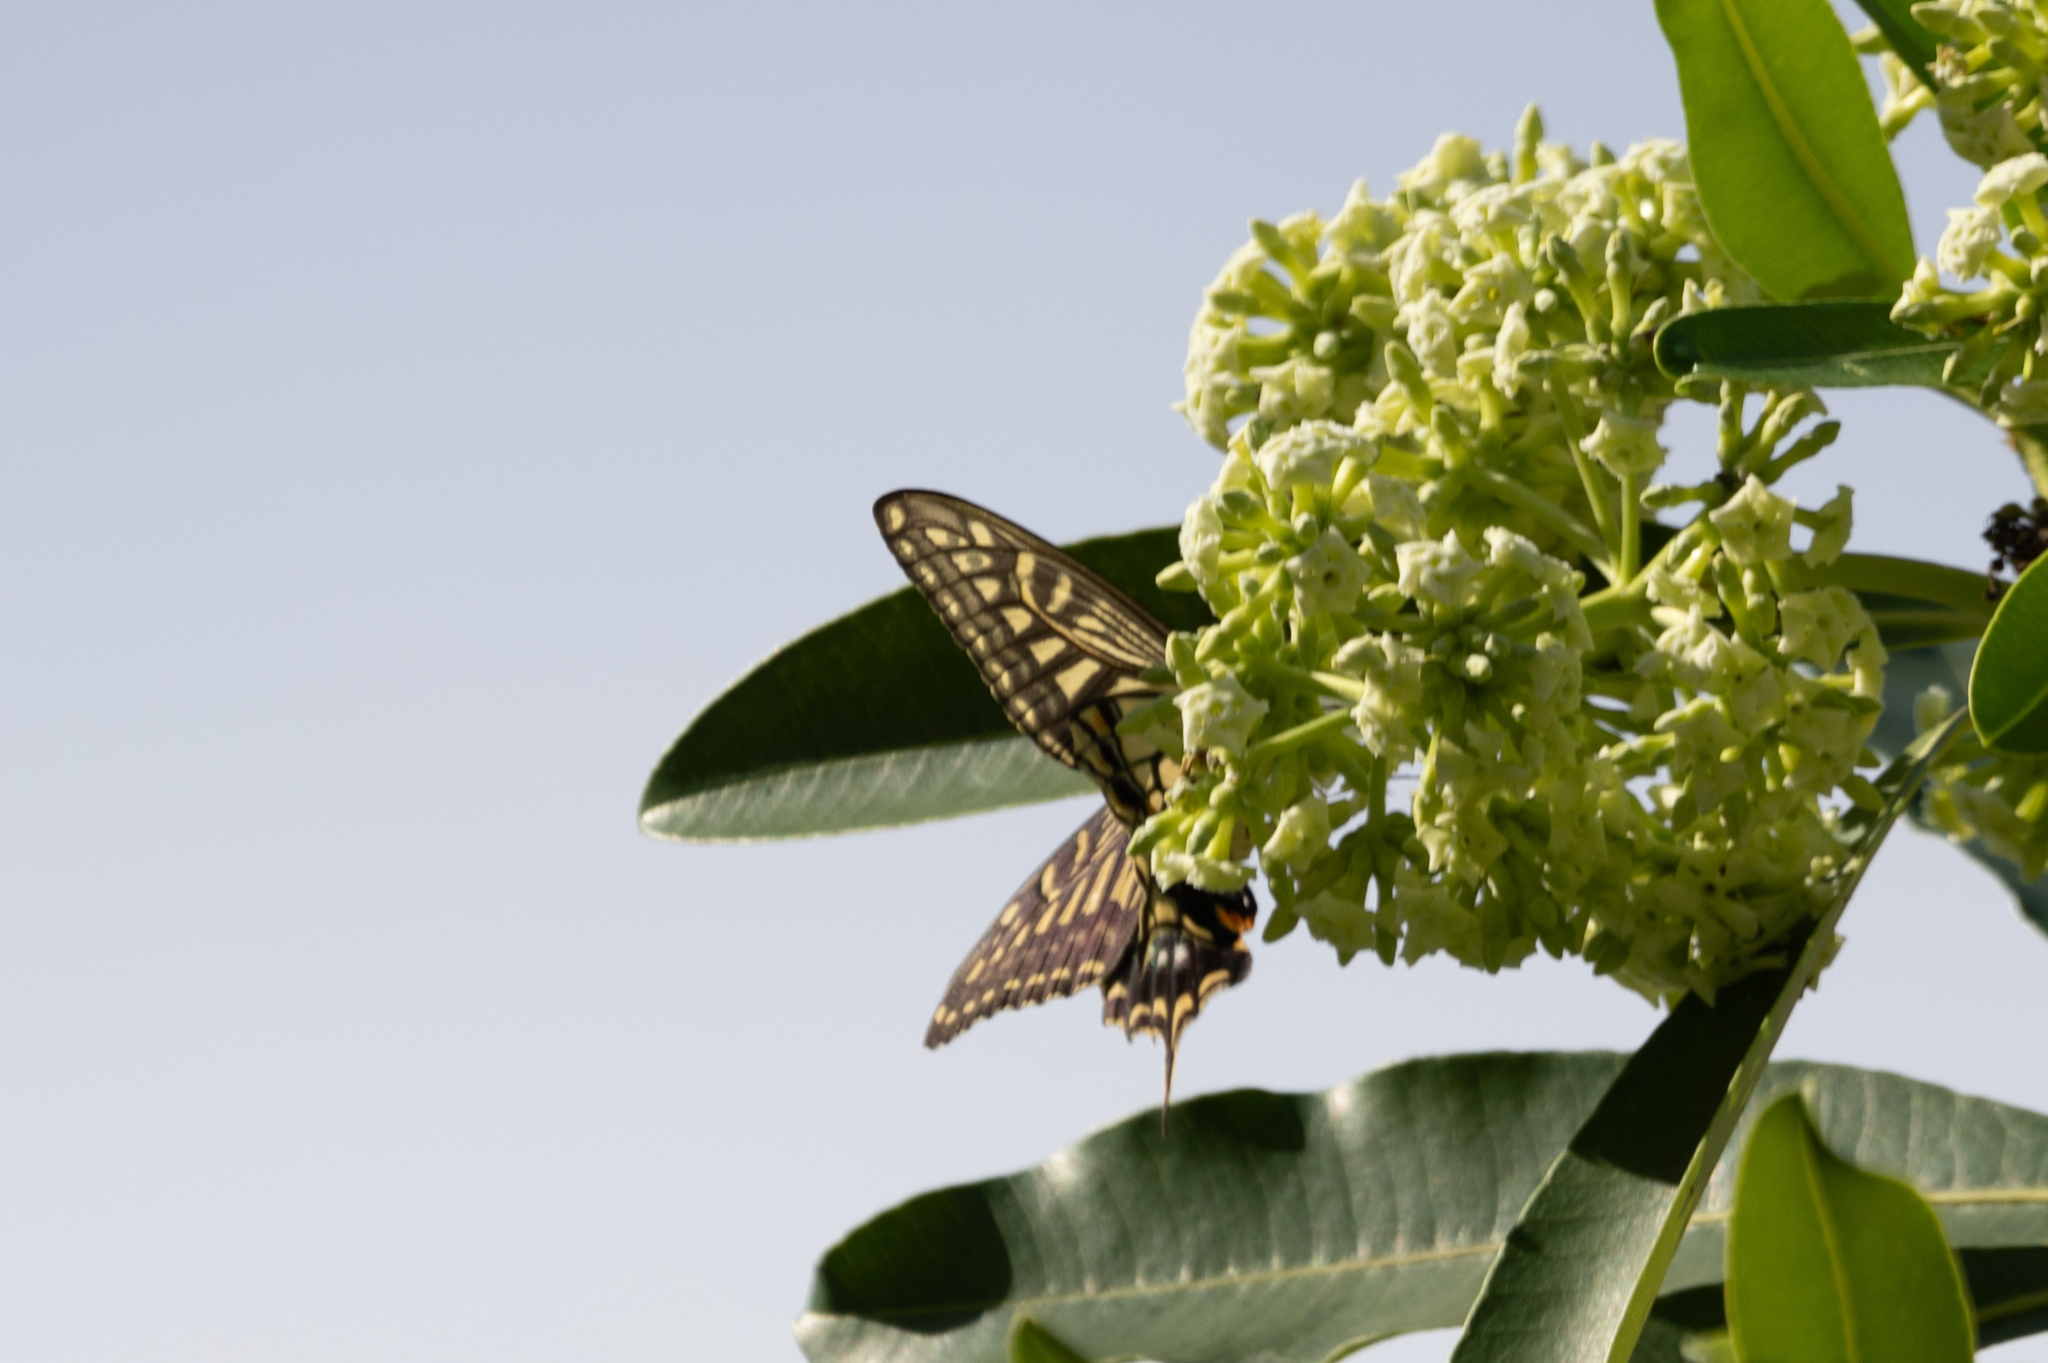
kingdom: Animalia
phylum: Arthropoda
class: Insecta
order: Lepidoptera
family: Papilionidae
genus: Papilio
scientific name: Papilio xuthus
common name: Asian swallowtail
